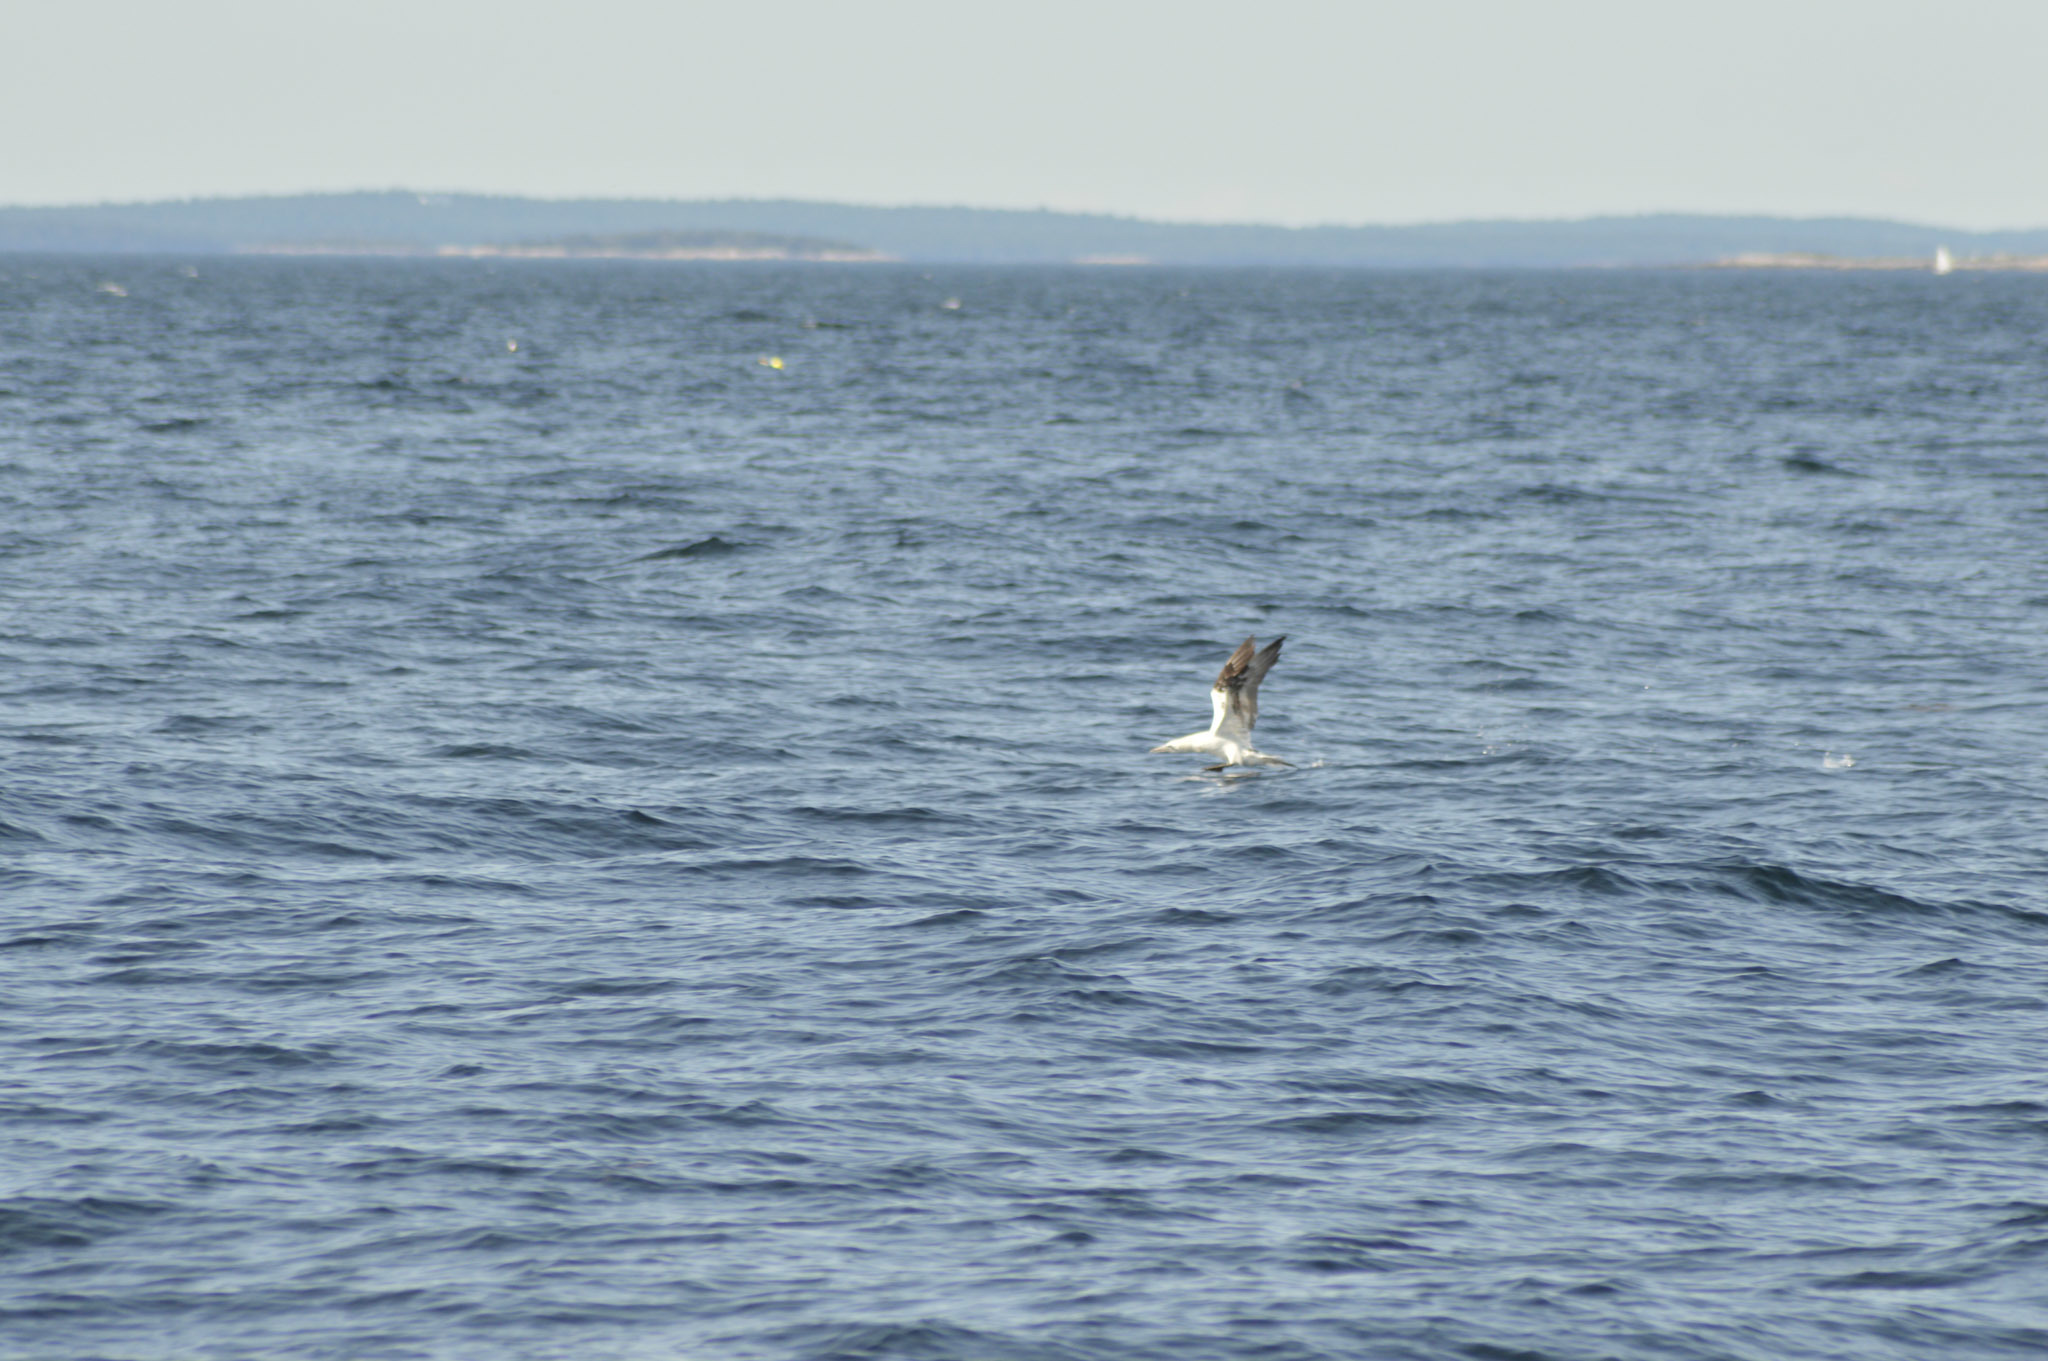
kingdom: Animalia
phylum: Chordata
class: Aves
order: Suliformes
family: Sulidae
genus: Morus
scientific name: Morus bassanus
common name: Northern gannet
